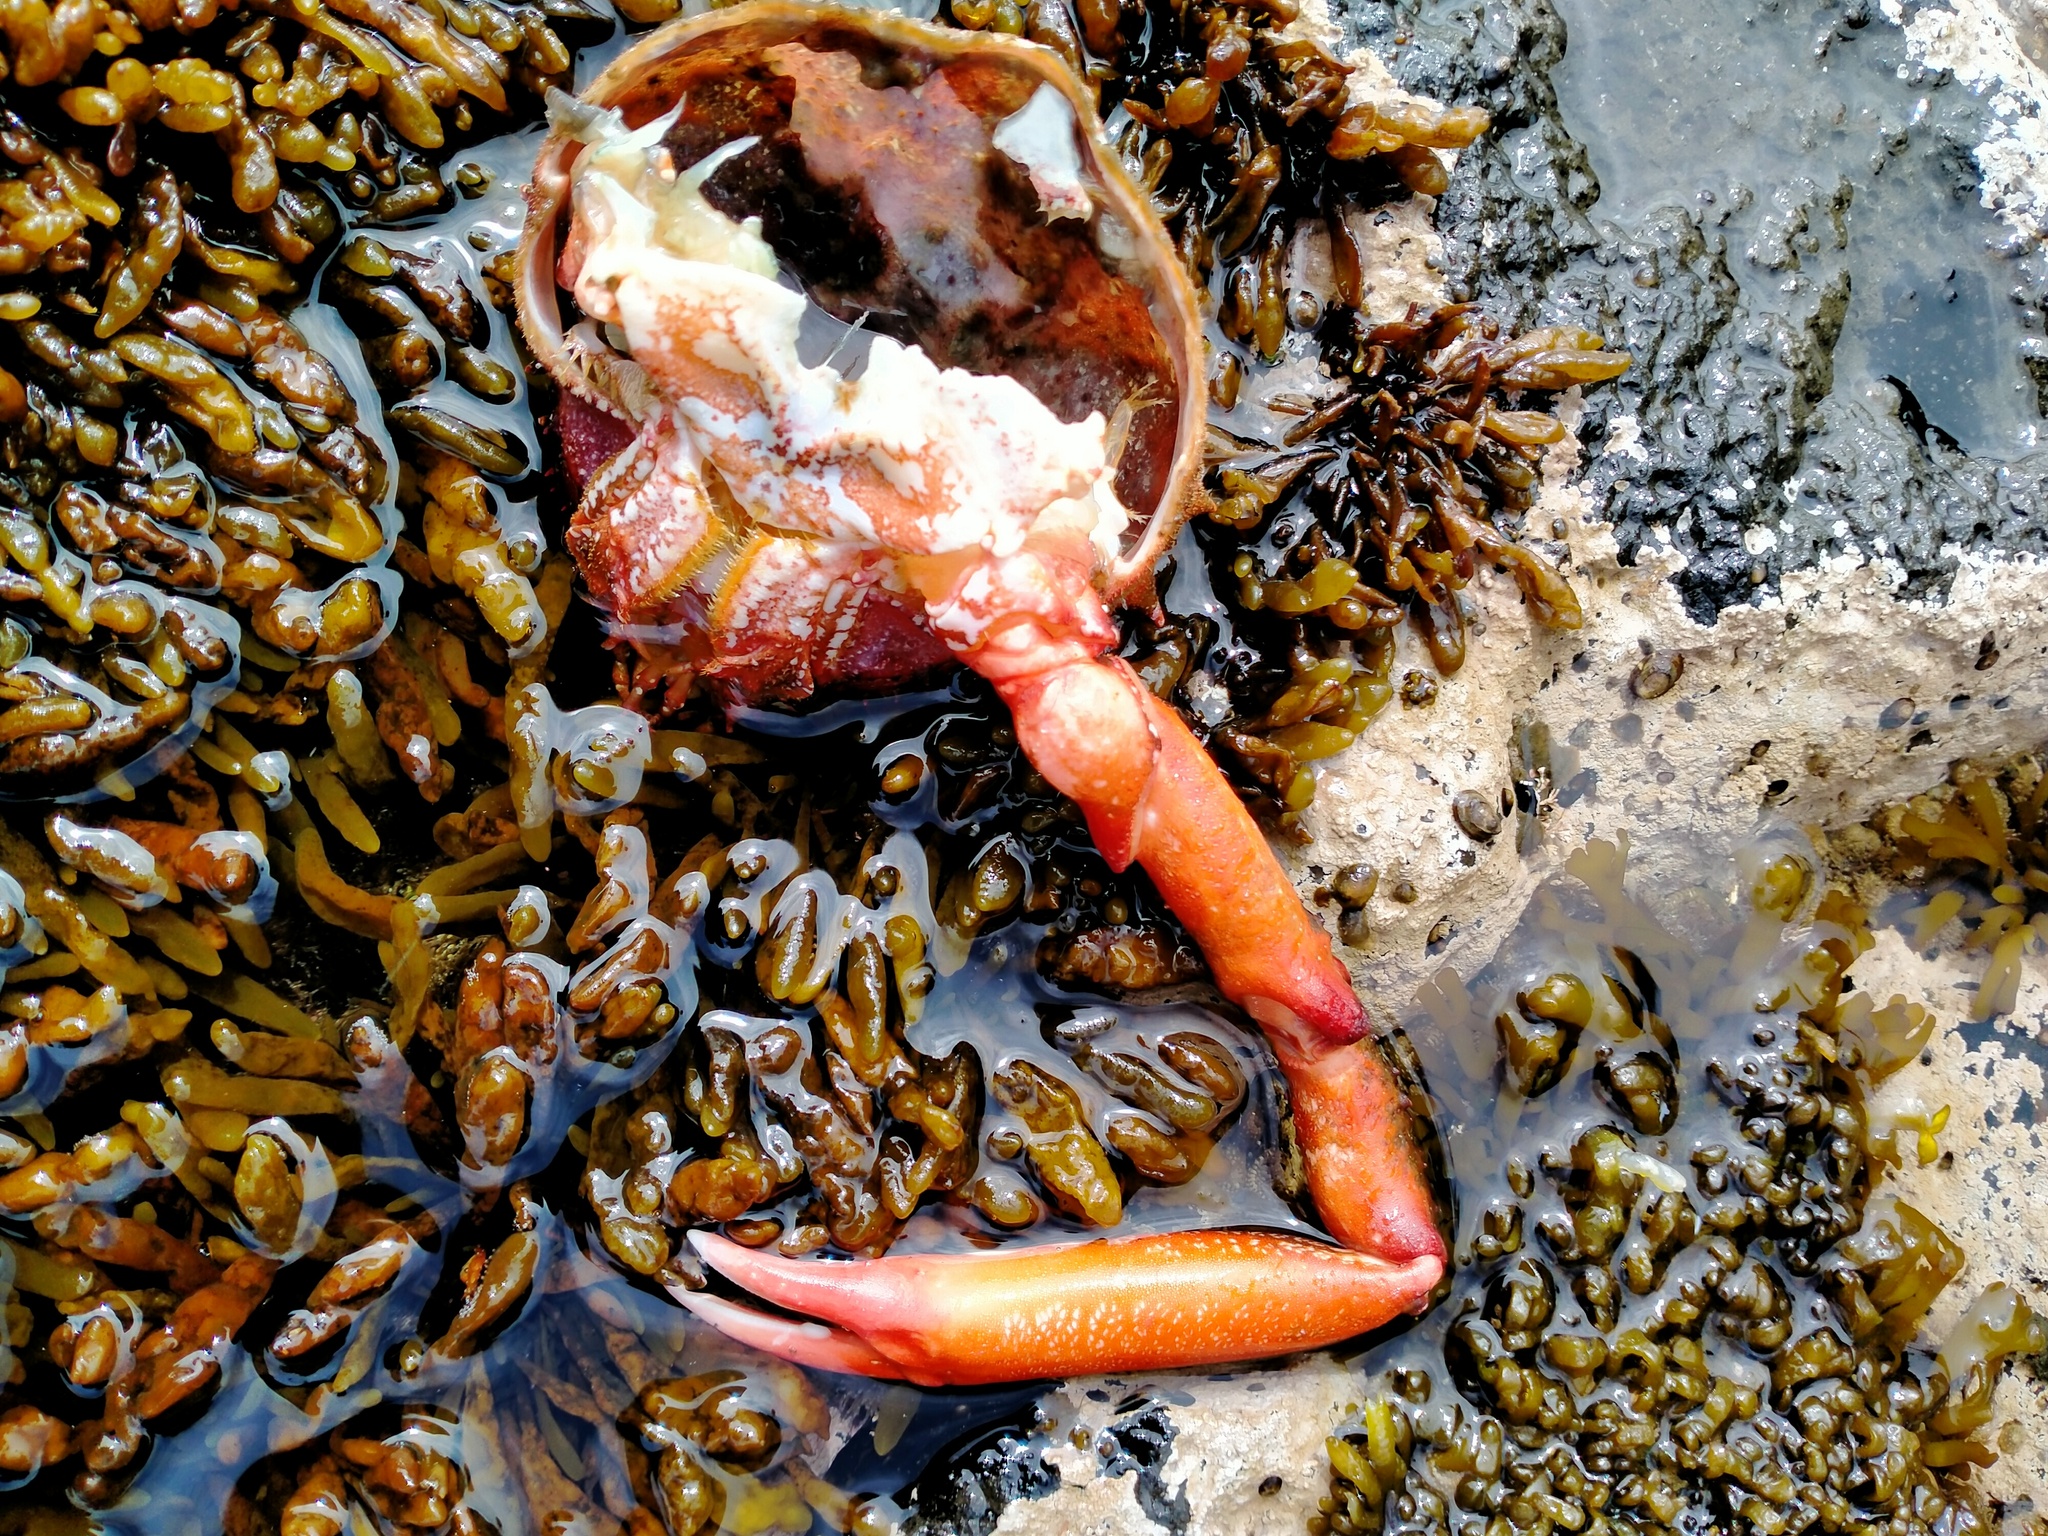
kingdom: Animalia
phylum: Arthropoda
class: Malacostraca
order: Decapoda
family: Majidae
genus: Leptomithrax
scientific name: Leptomithrax australis
